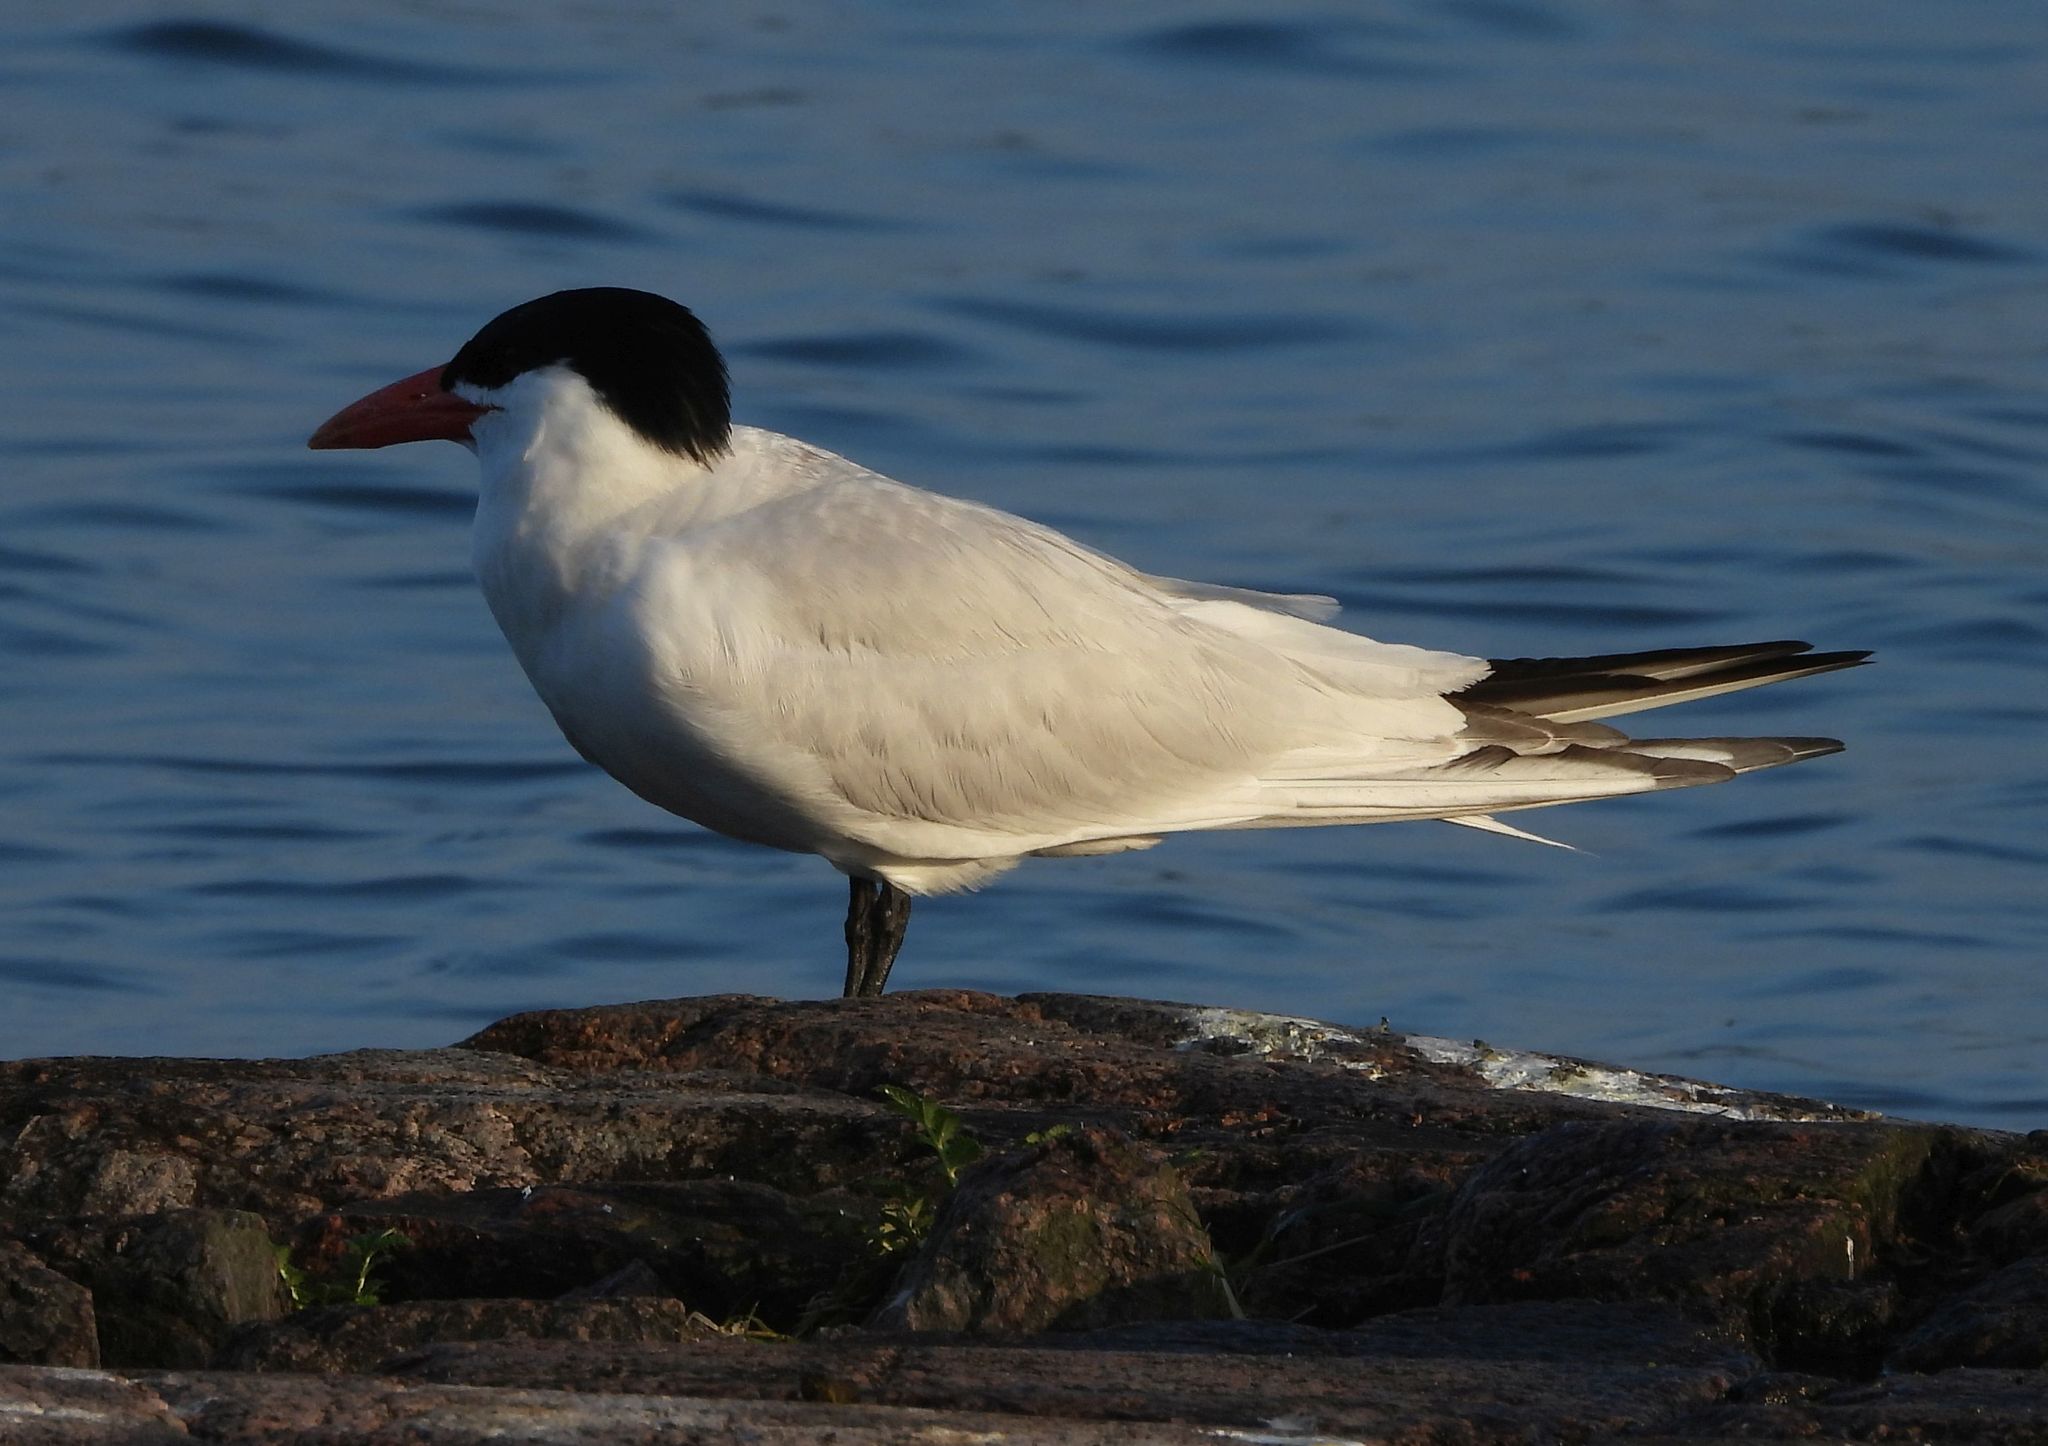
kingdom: Animalia
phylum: Chordata
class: Aves
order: Charadriiformes
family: Laridae
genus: Hydroprogne
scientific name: Hydroprogne caspia
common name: Caspian tern
